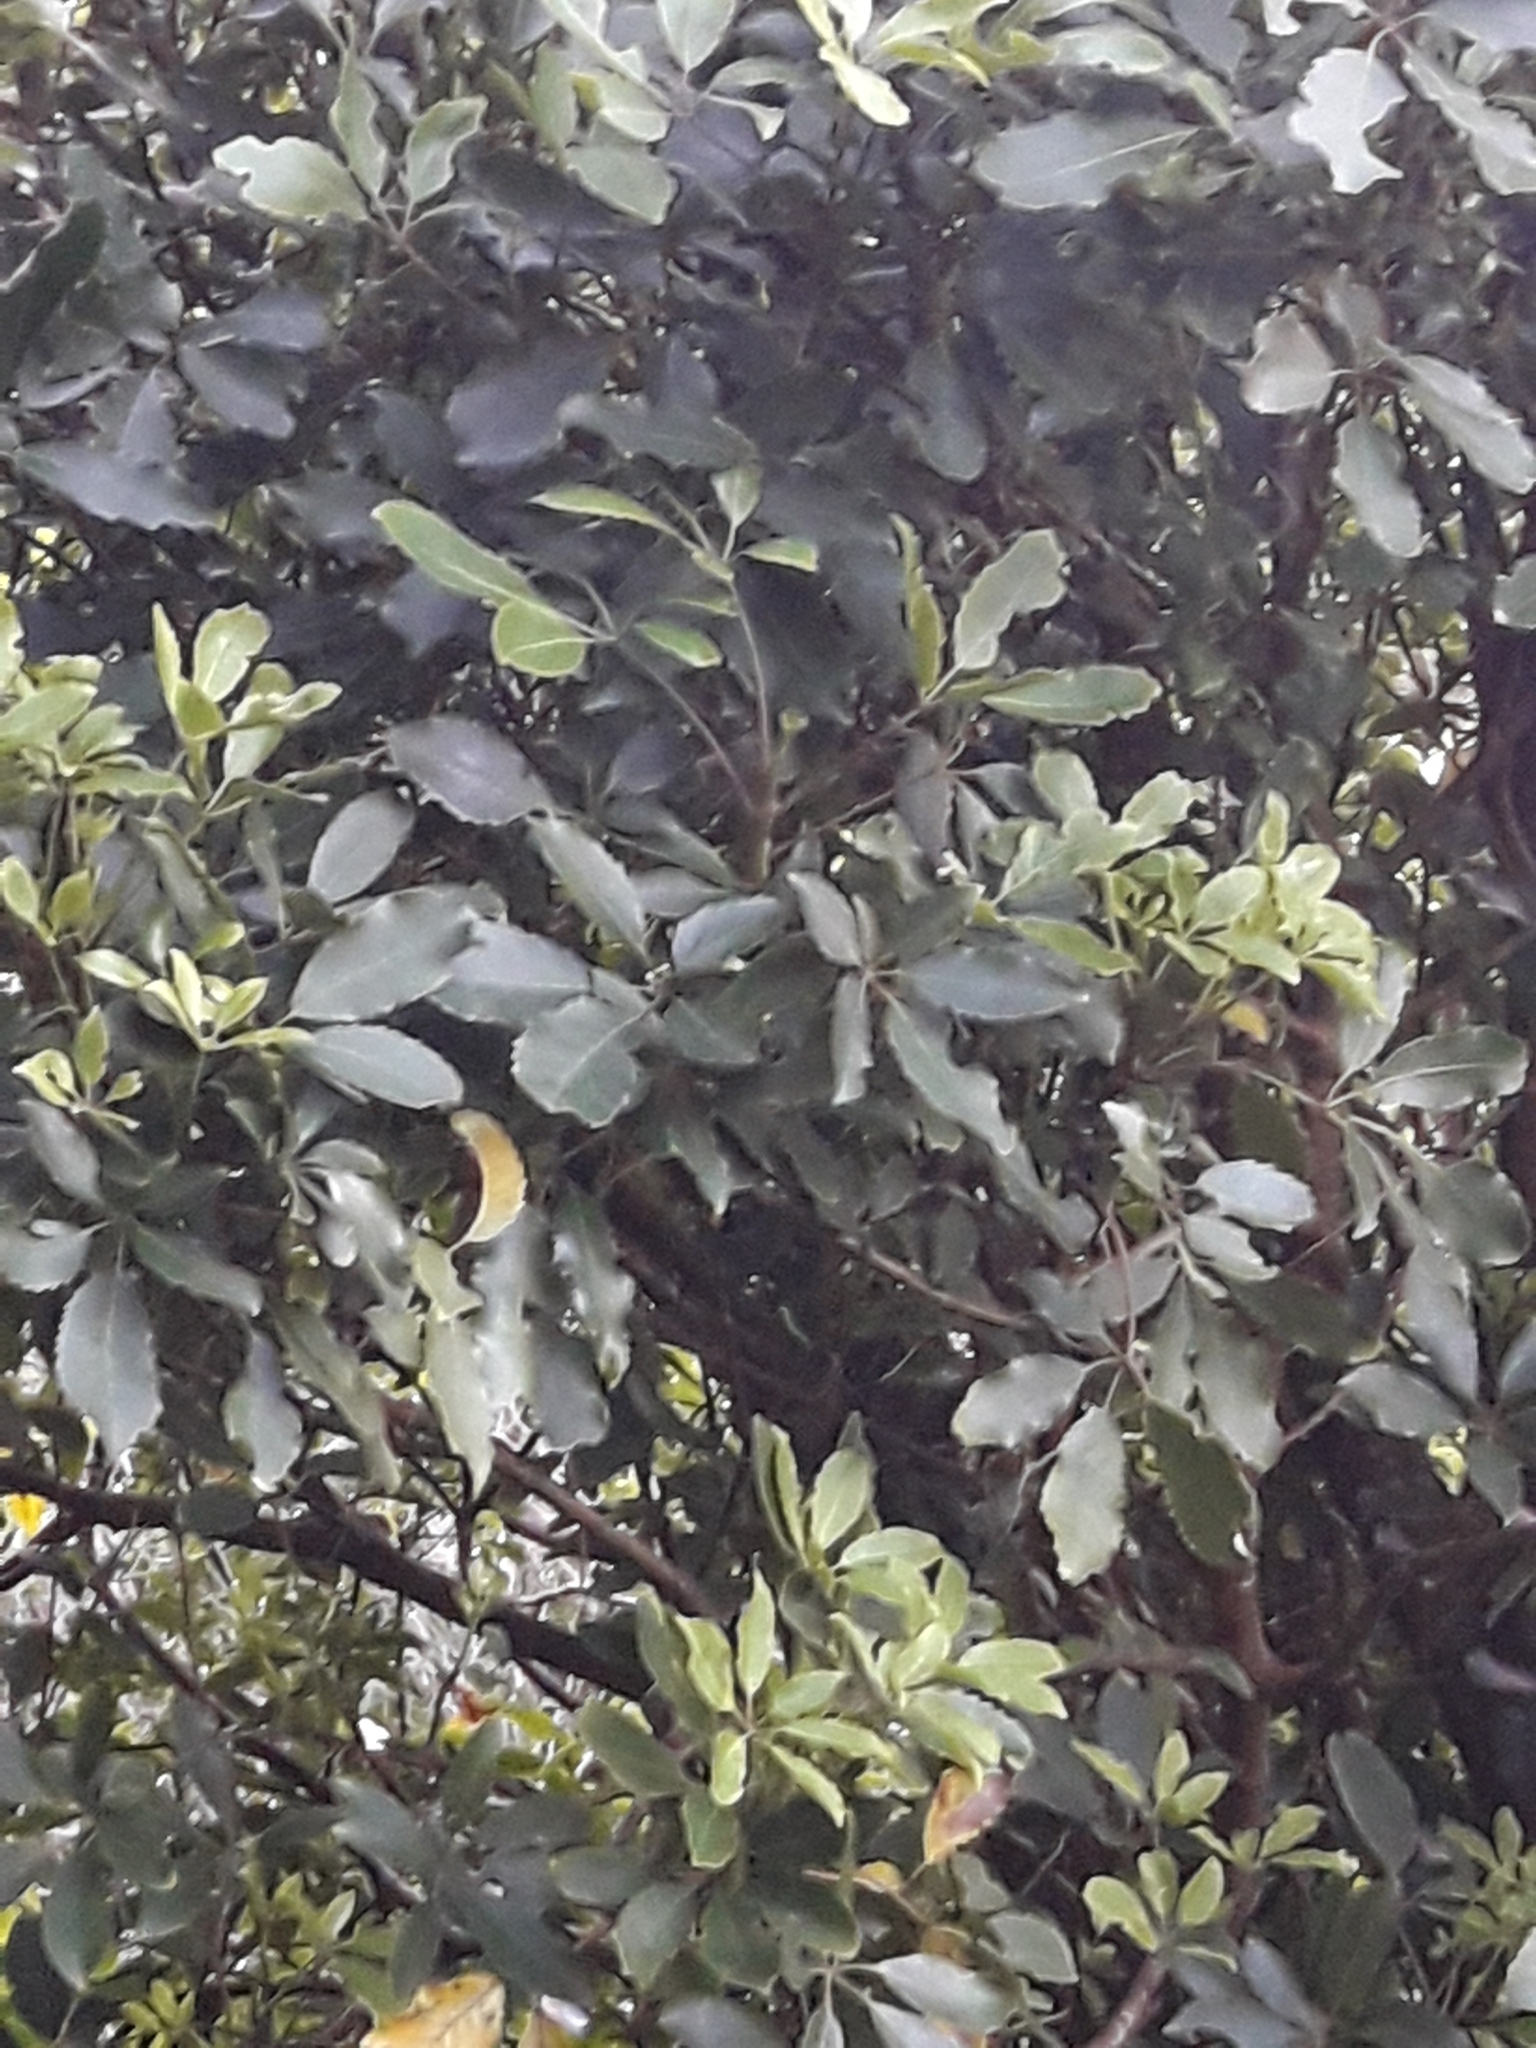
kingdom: Plantae
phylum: Tracheophyta
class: Magnoliopsida
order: Apiales
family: Araliaceae
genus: Neopanax
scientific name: Neopanax arboreus
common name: Five-fingers
